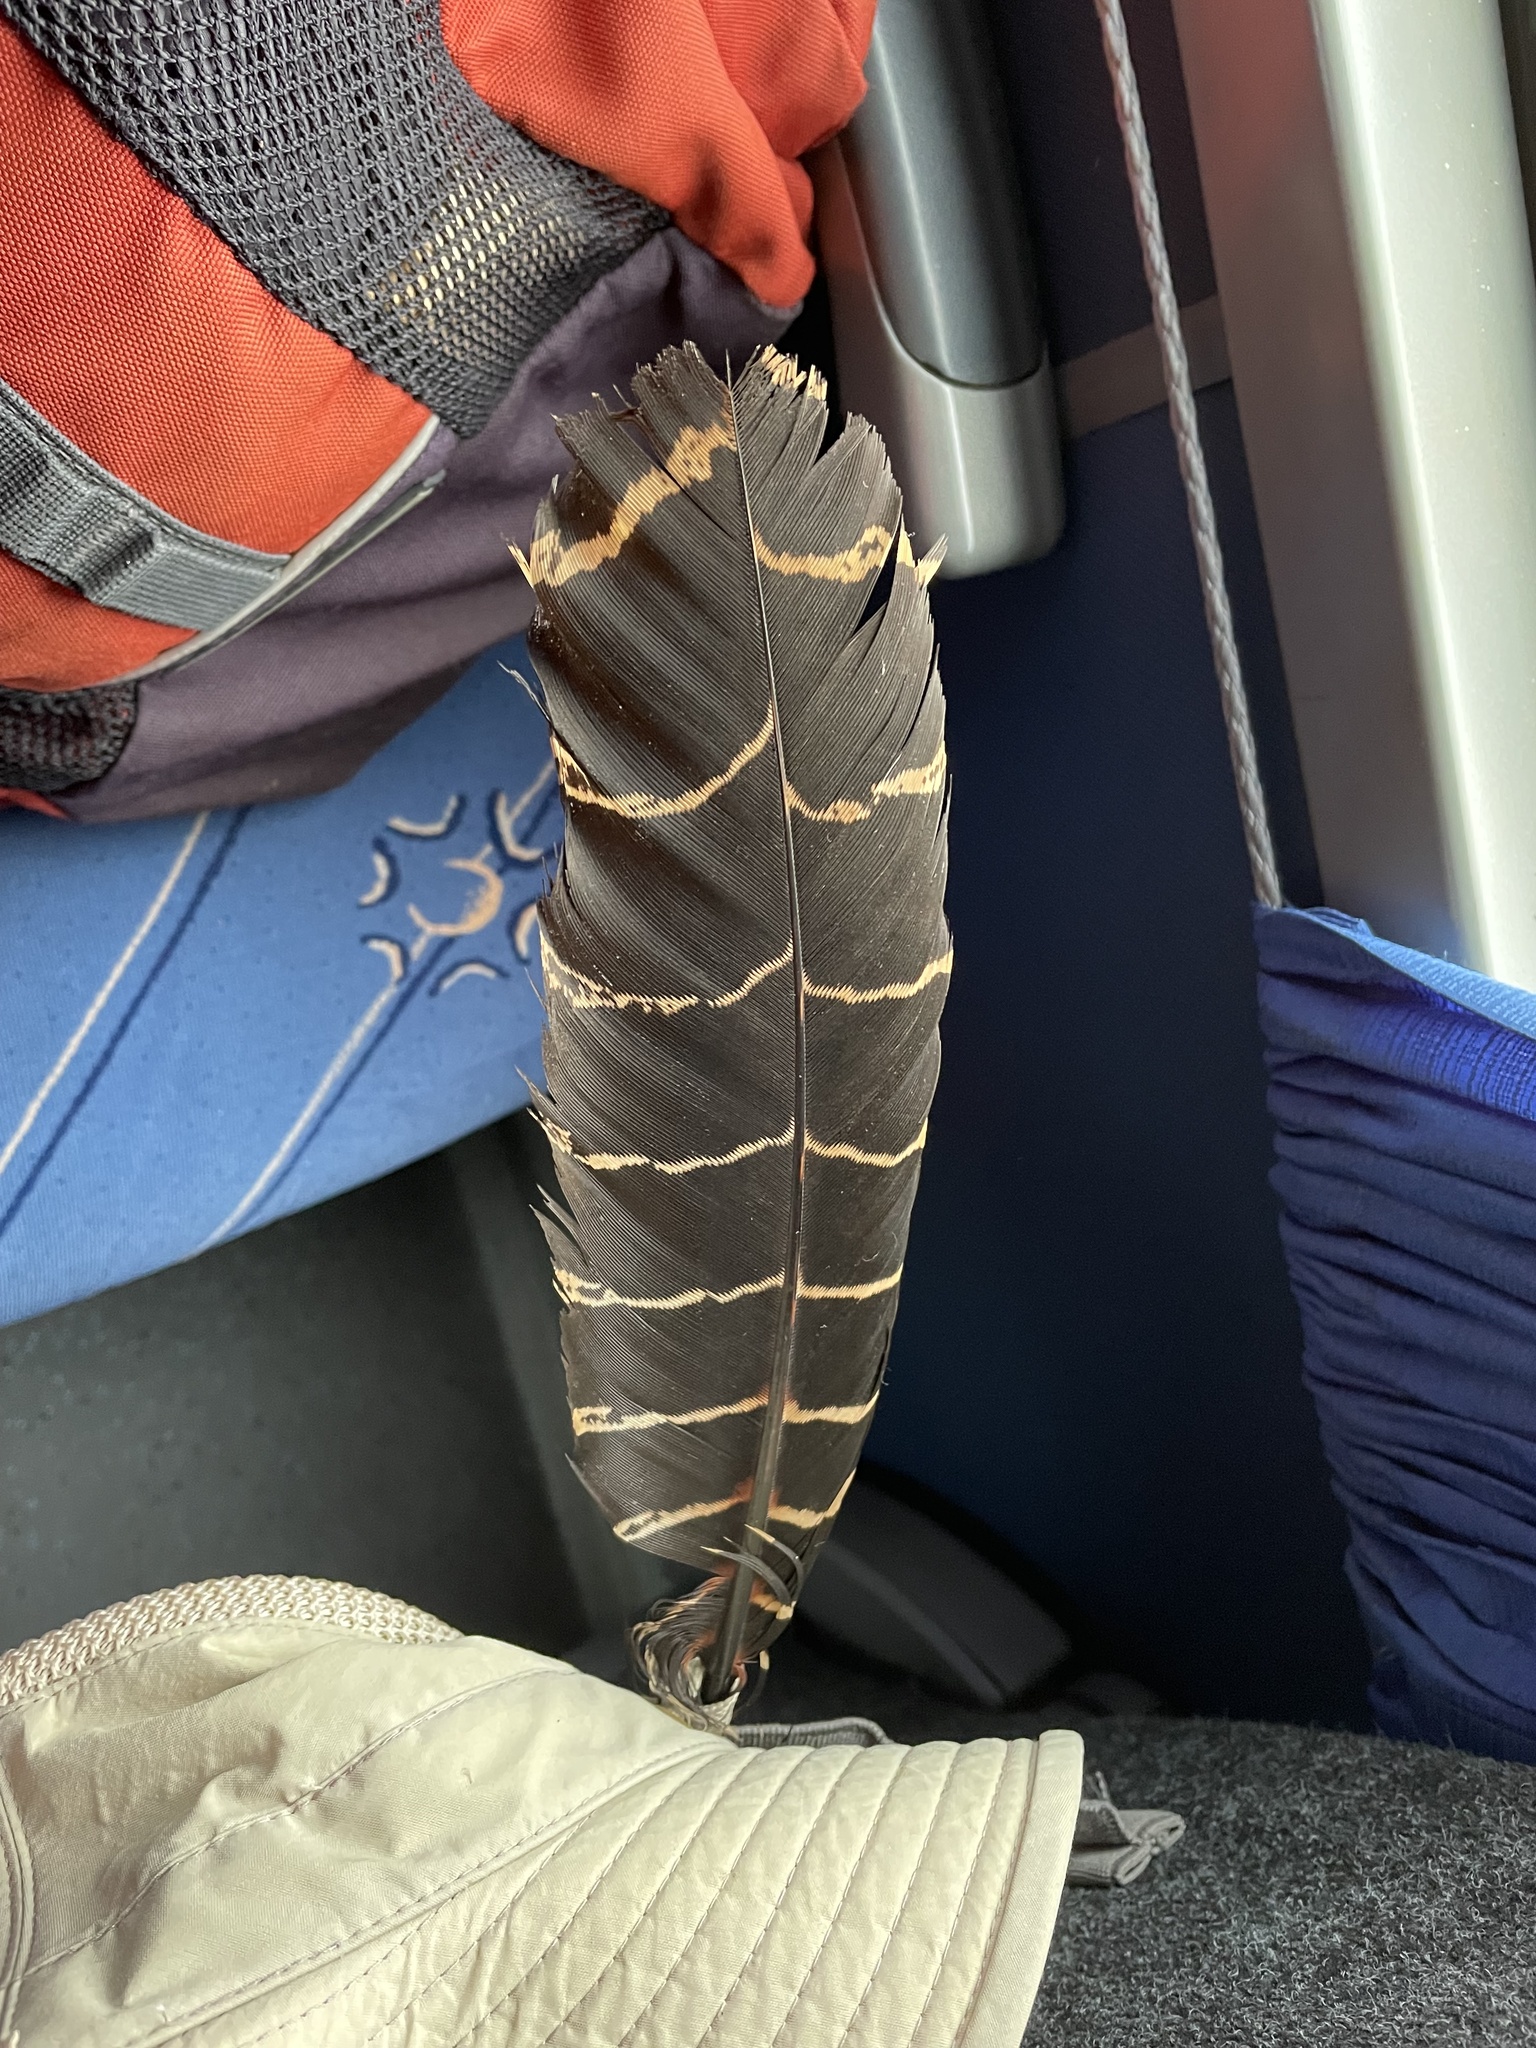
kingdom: Animalia
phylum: Chordata
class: Aves
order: Galliformes
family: Cracidae
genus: Crax
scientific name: Crax rubra
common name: Great curassow
